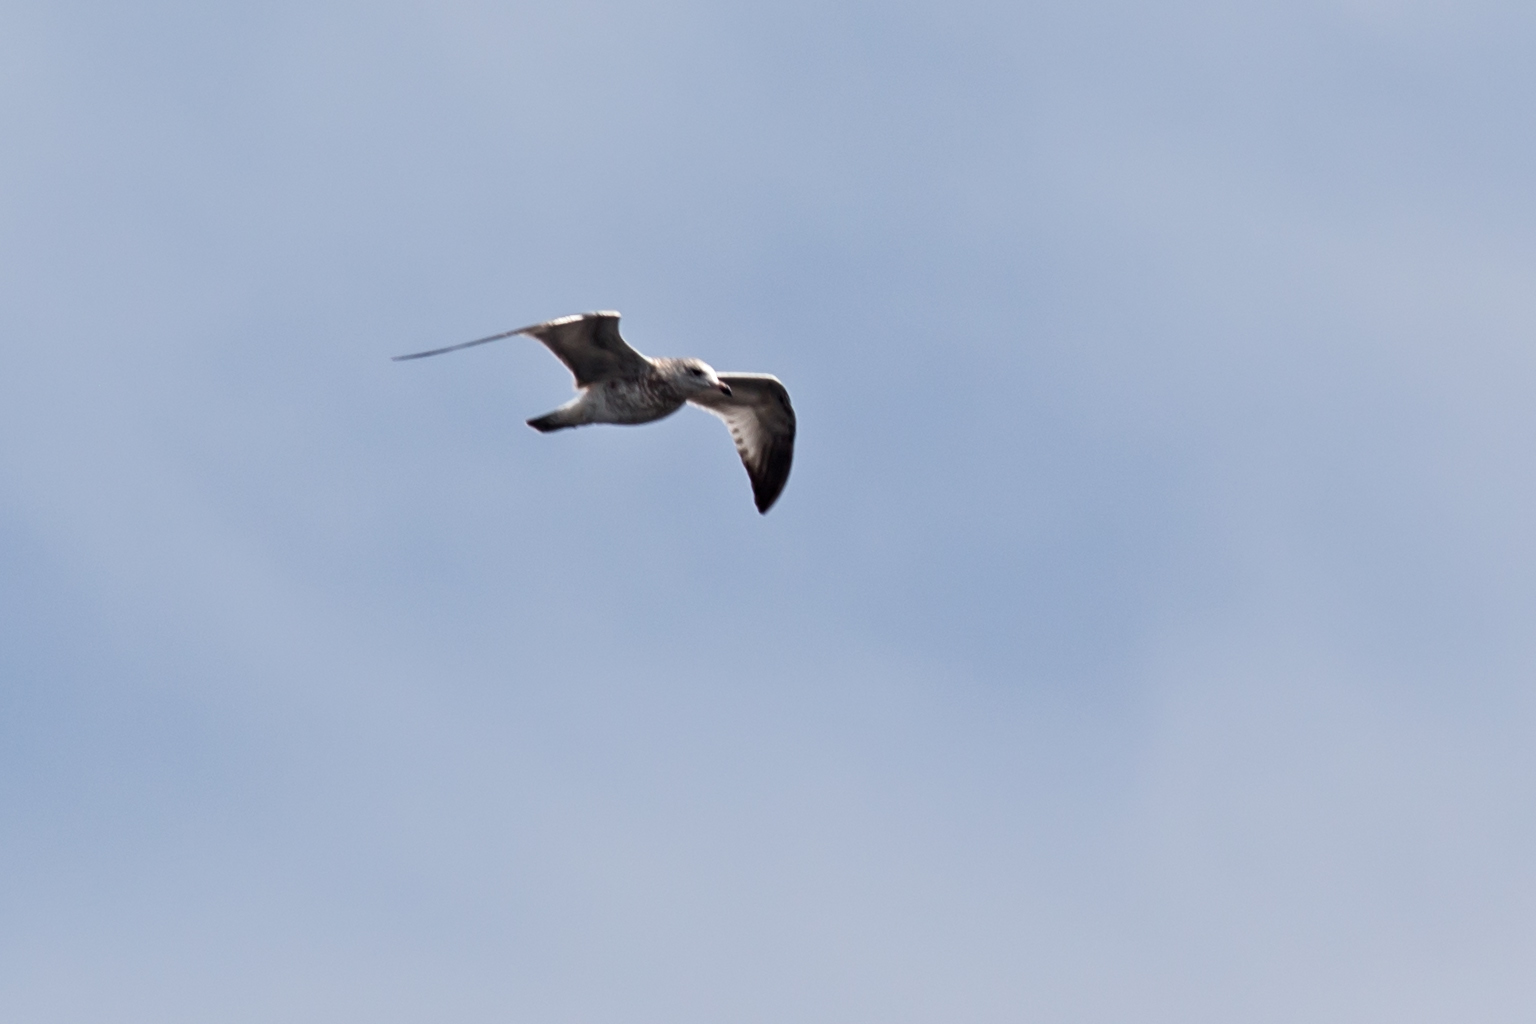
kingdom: Animalia
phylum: Chordata
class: Aves
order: Charadriiformes
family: Laridae
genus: Larus
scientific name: Larus delawarensis
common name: Ring-billed gull
